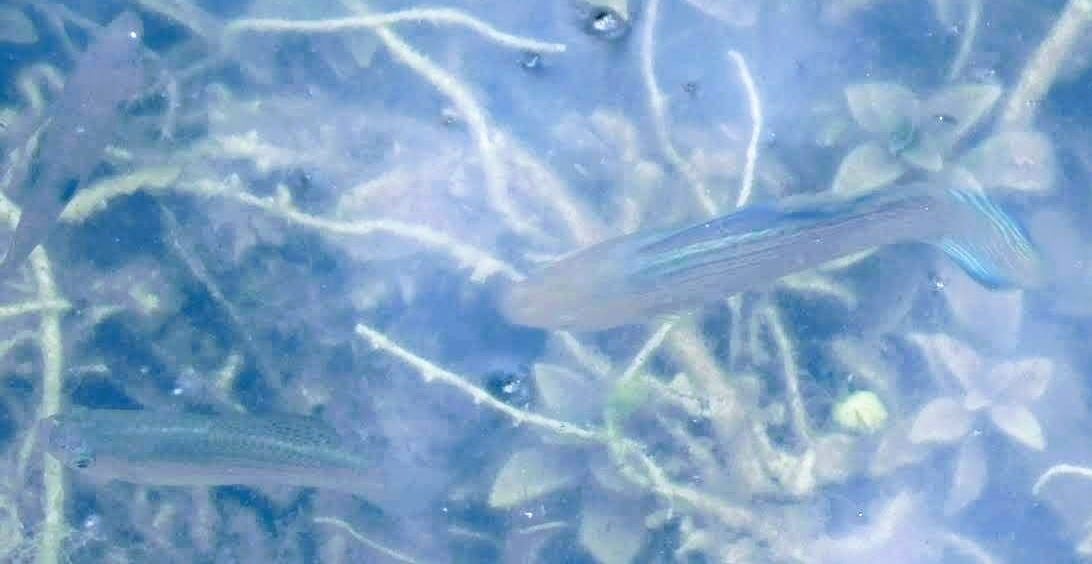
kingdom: Animalia
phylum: Chordata
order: Cyprinodontiformes
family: Poeciliidae
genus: Poecilia
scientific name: Poecilia latipinna
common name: Sailfin molly
